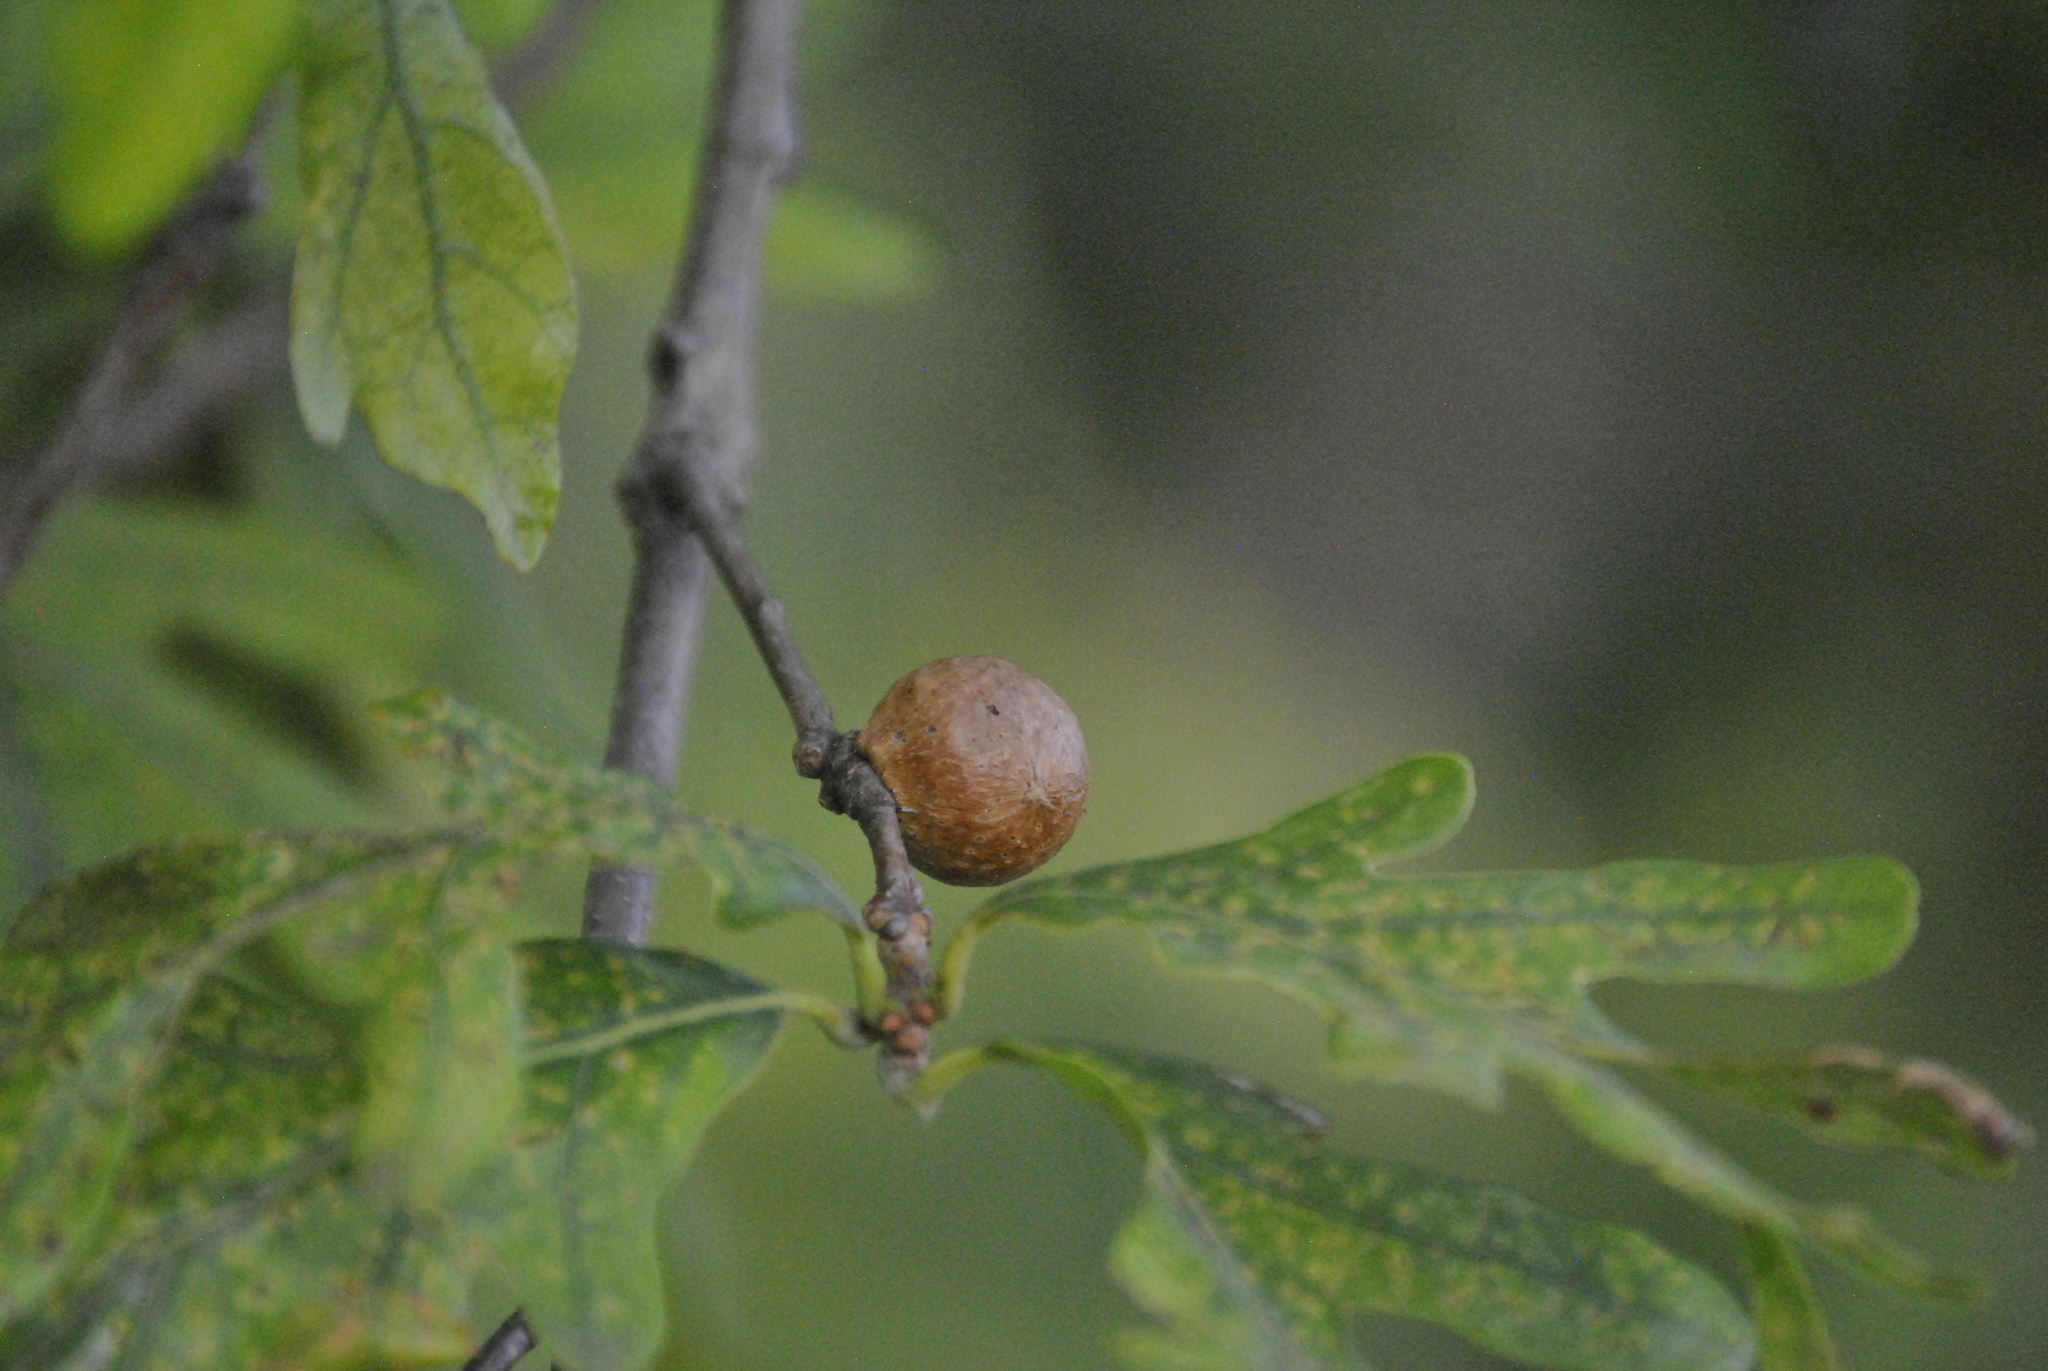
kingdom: Animalia
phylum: Arthropoda
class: Insecta
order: Hymenoptera
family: Cynipidae
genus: Disholcaspis
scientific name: Disholcaspis quercusglobulus
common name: Round bullet gall wasp
